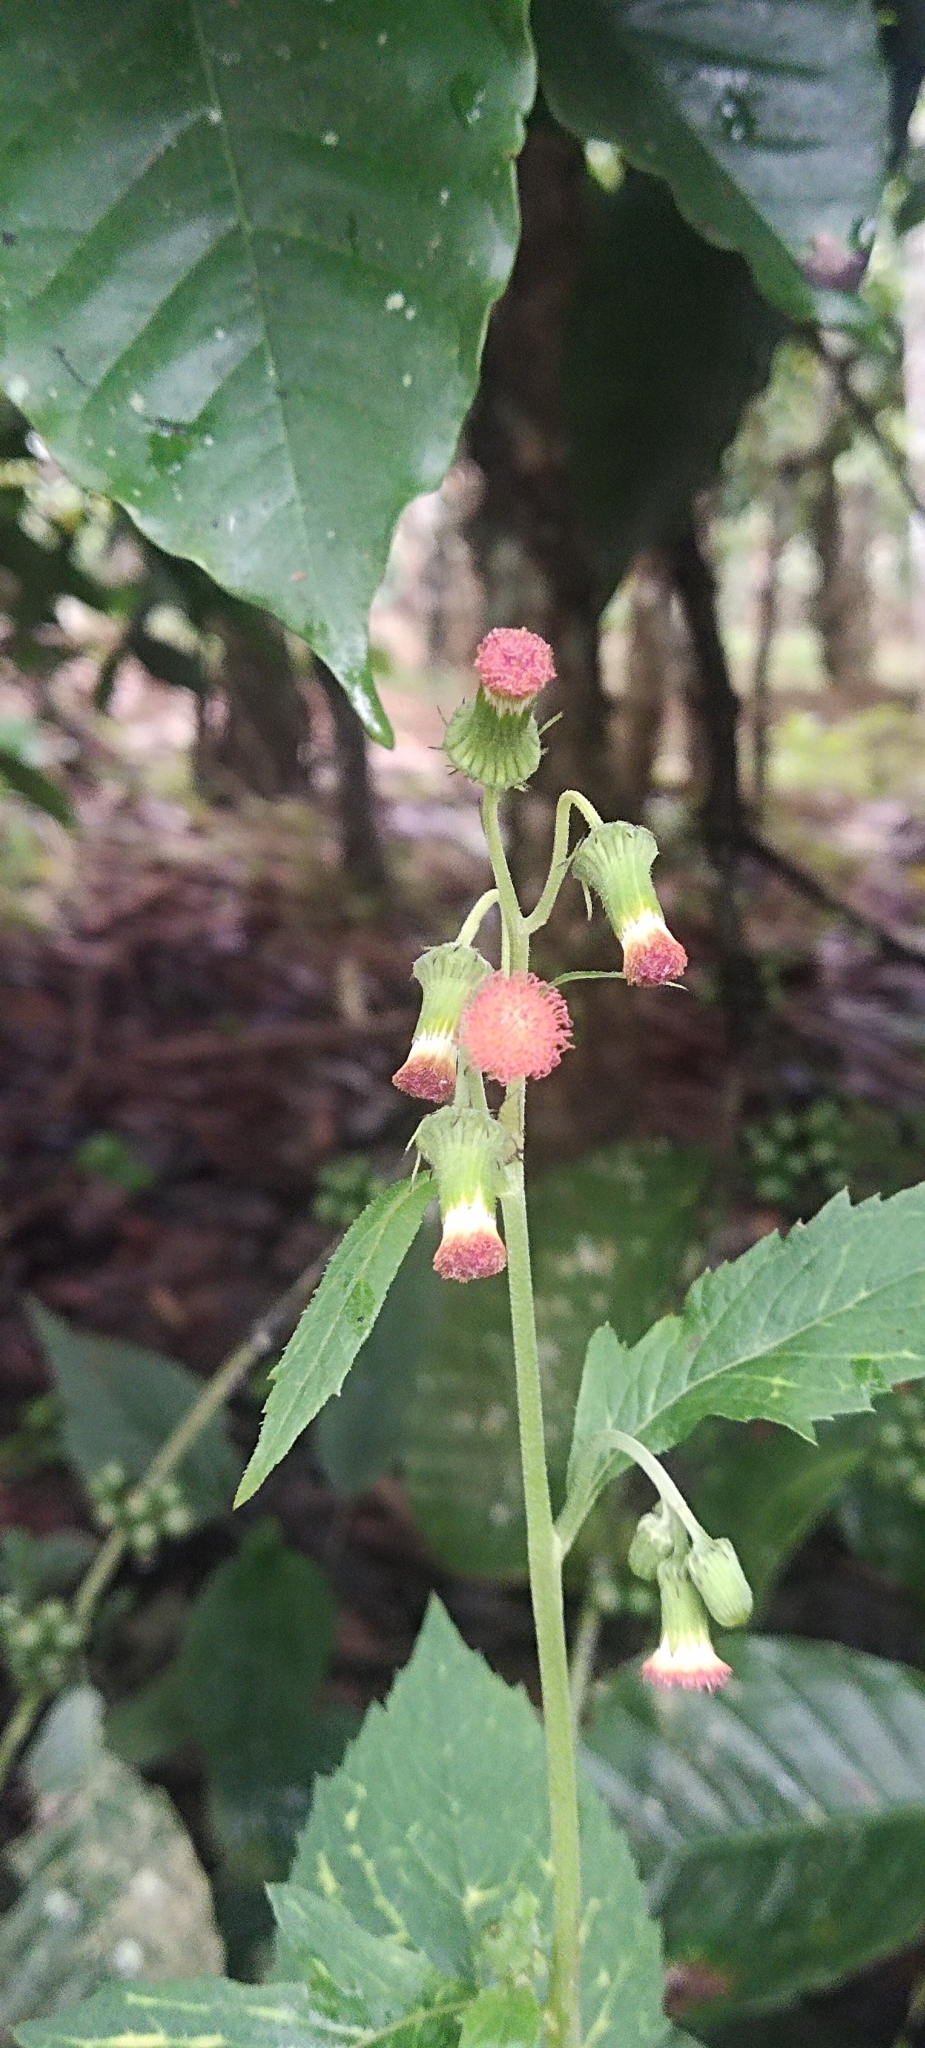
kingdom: Plantae
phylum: Tracheophyta
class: Magnoliopsida
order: Asterales
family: Asteraceae
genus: Crassocephalum
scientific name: Crassocephalum crepidioides
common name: Redflower ragleaf
